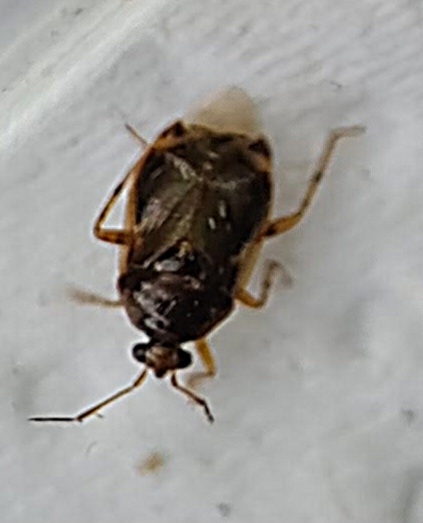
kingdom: Animalia
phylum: Arthropoda
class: Insecta
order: Hemiptera
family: Miridae
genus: Deraeocoris
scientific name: Deraeocoris lutescens
